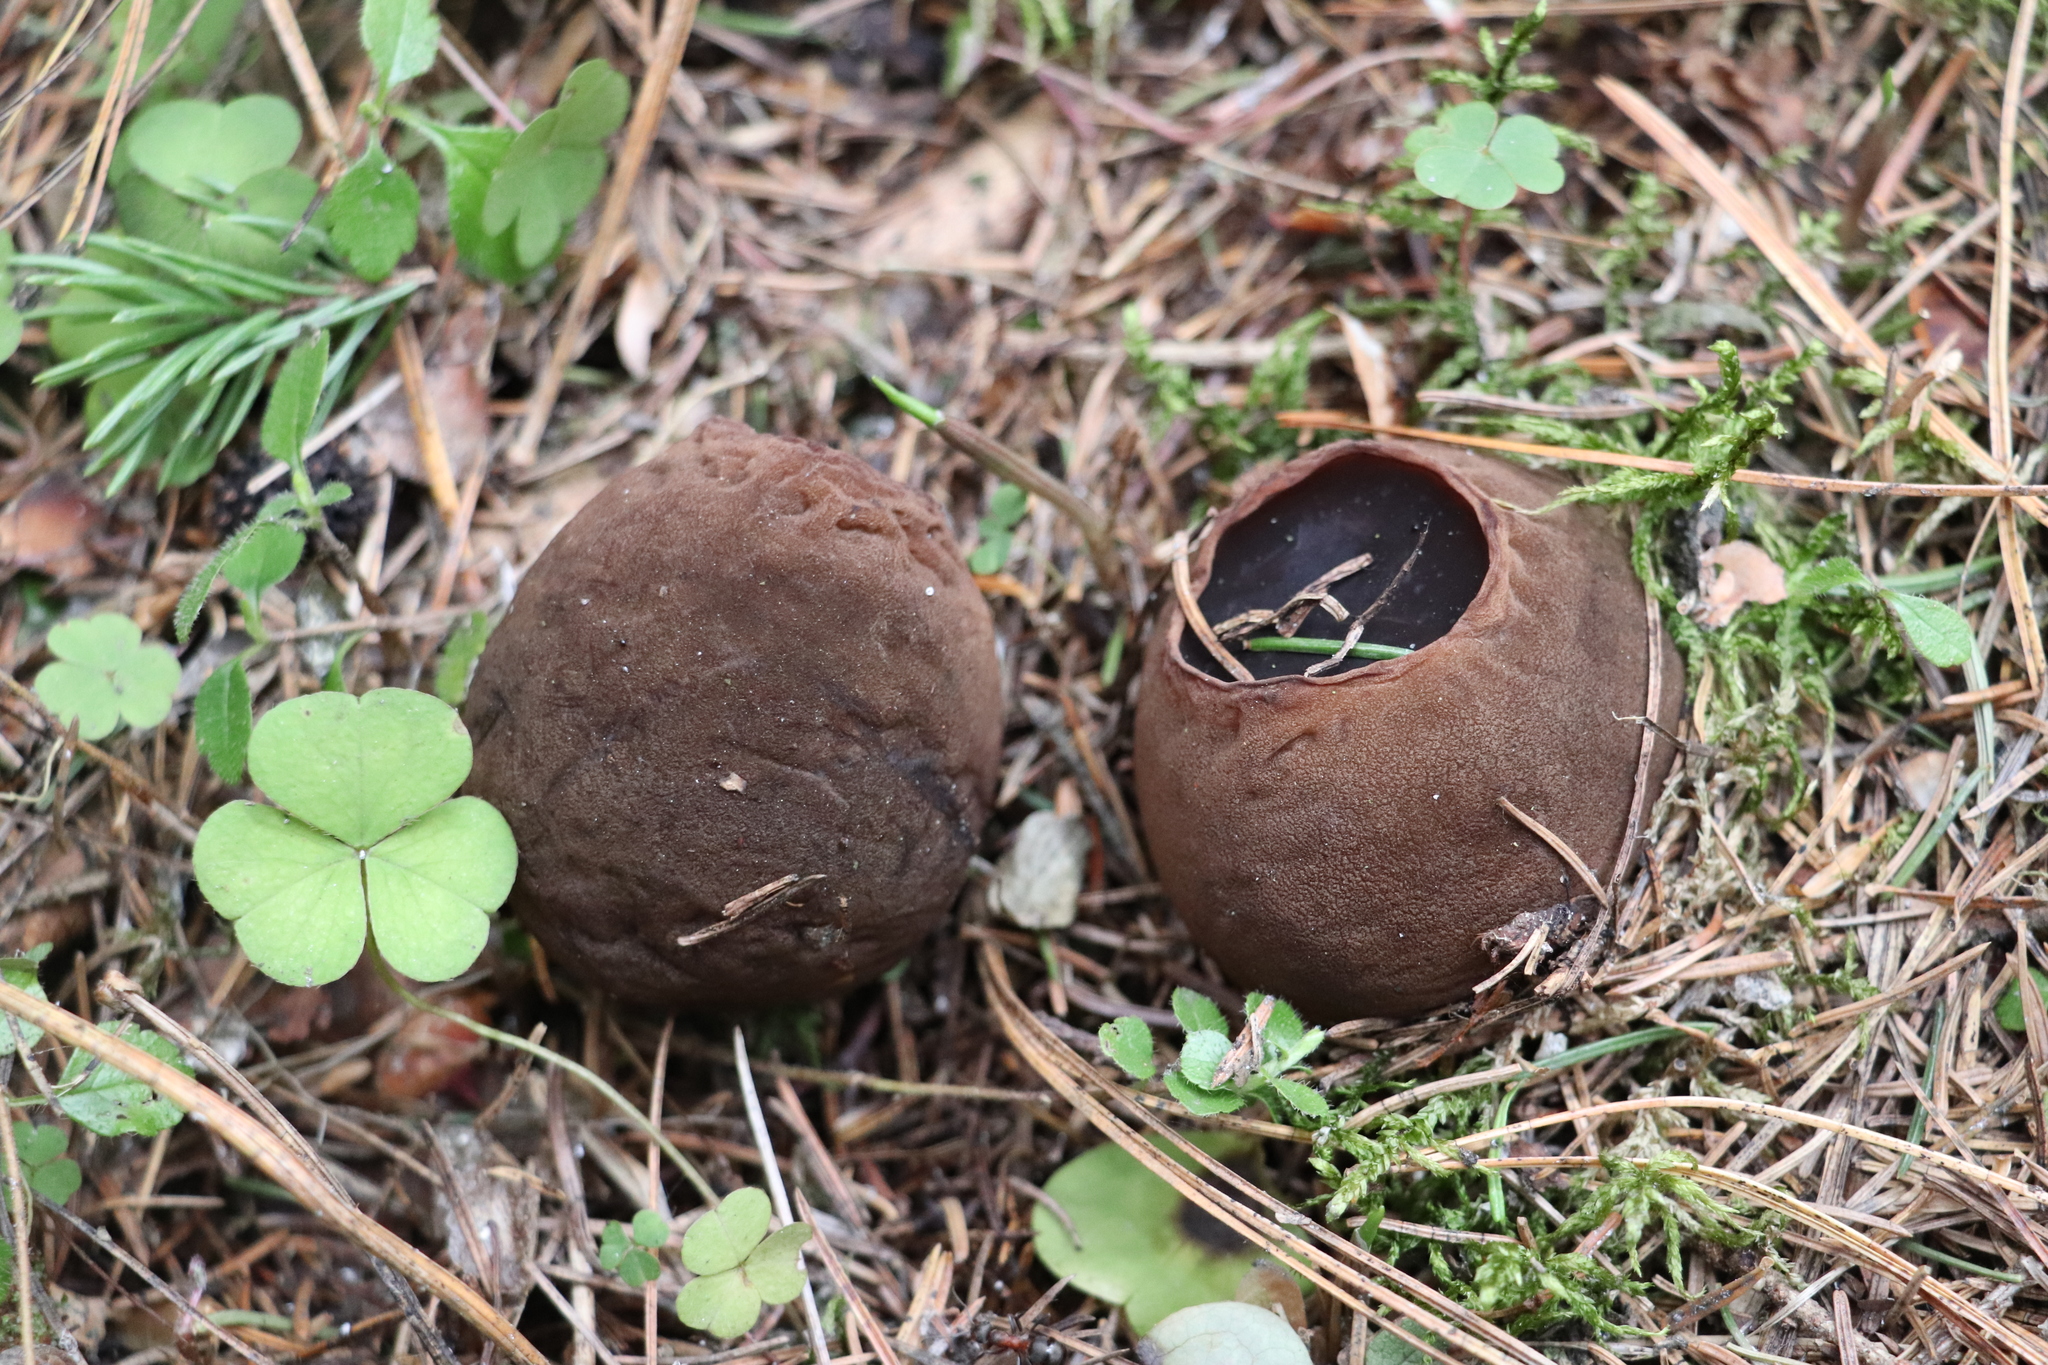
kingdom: Fungi
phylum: Ascomycota
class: Pezizomycetes
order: Pezizales
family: Sarcosomataceae
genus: Sarcosoma
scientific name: Sarcosoma globosum
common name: Charred-pancake cup
